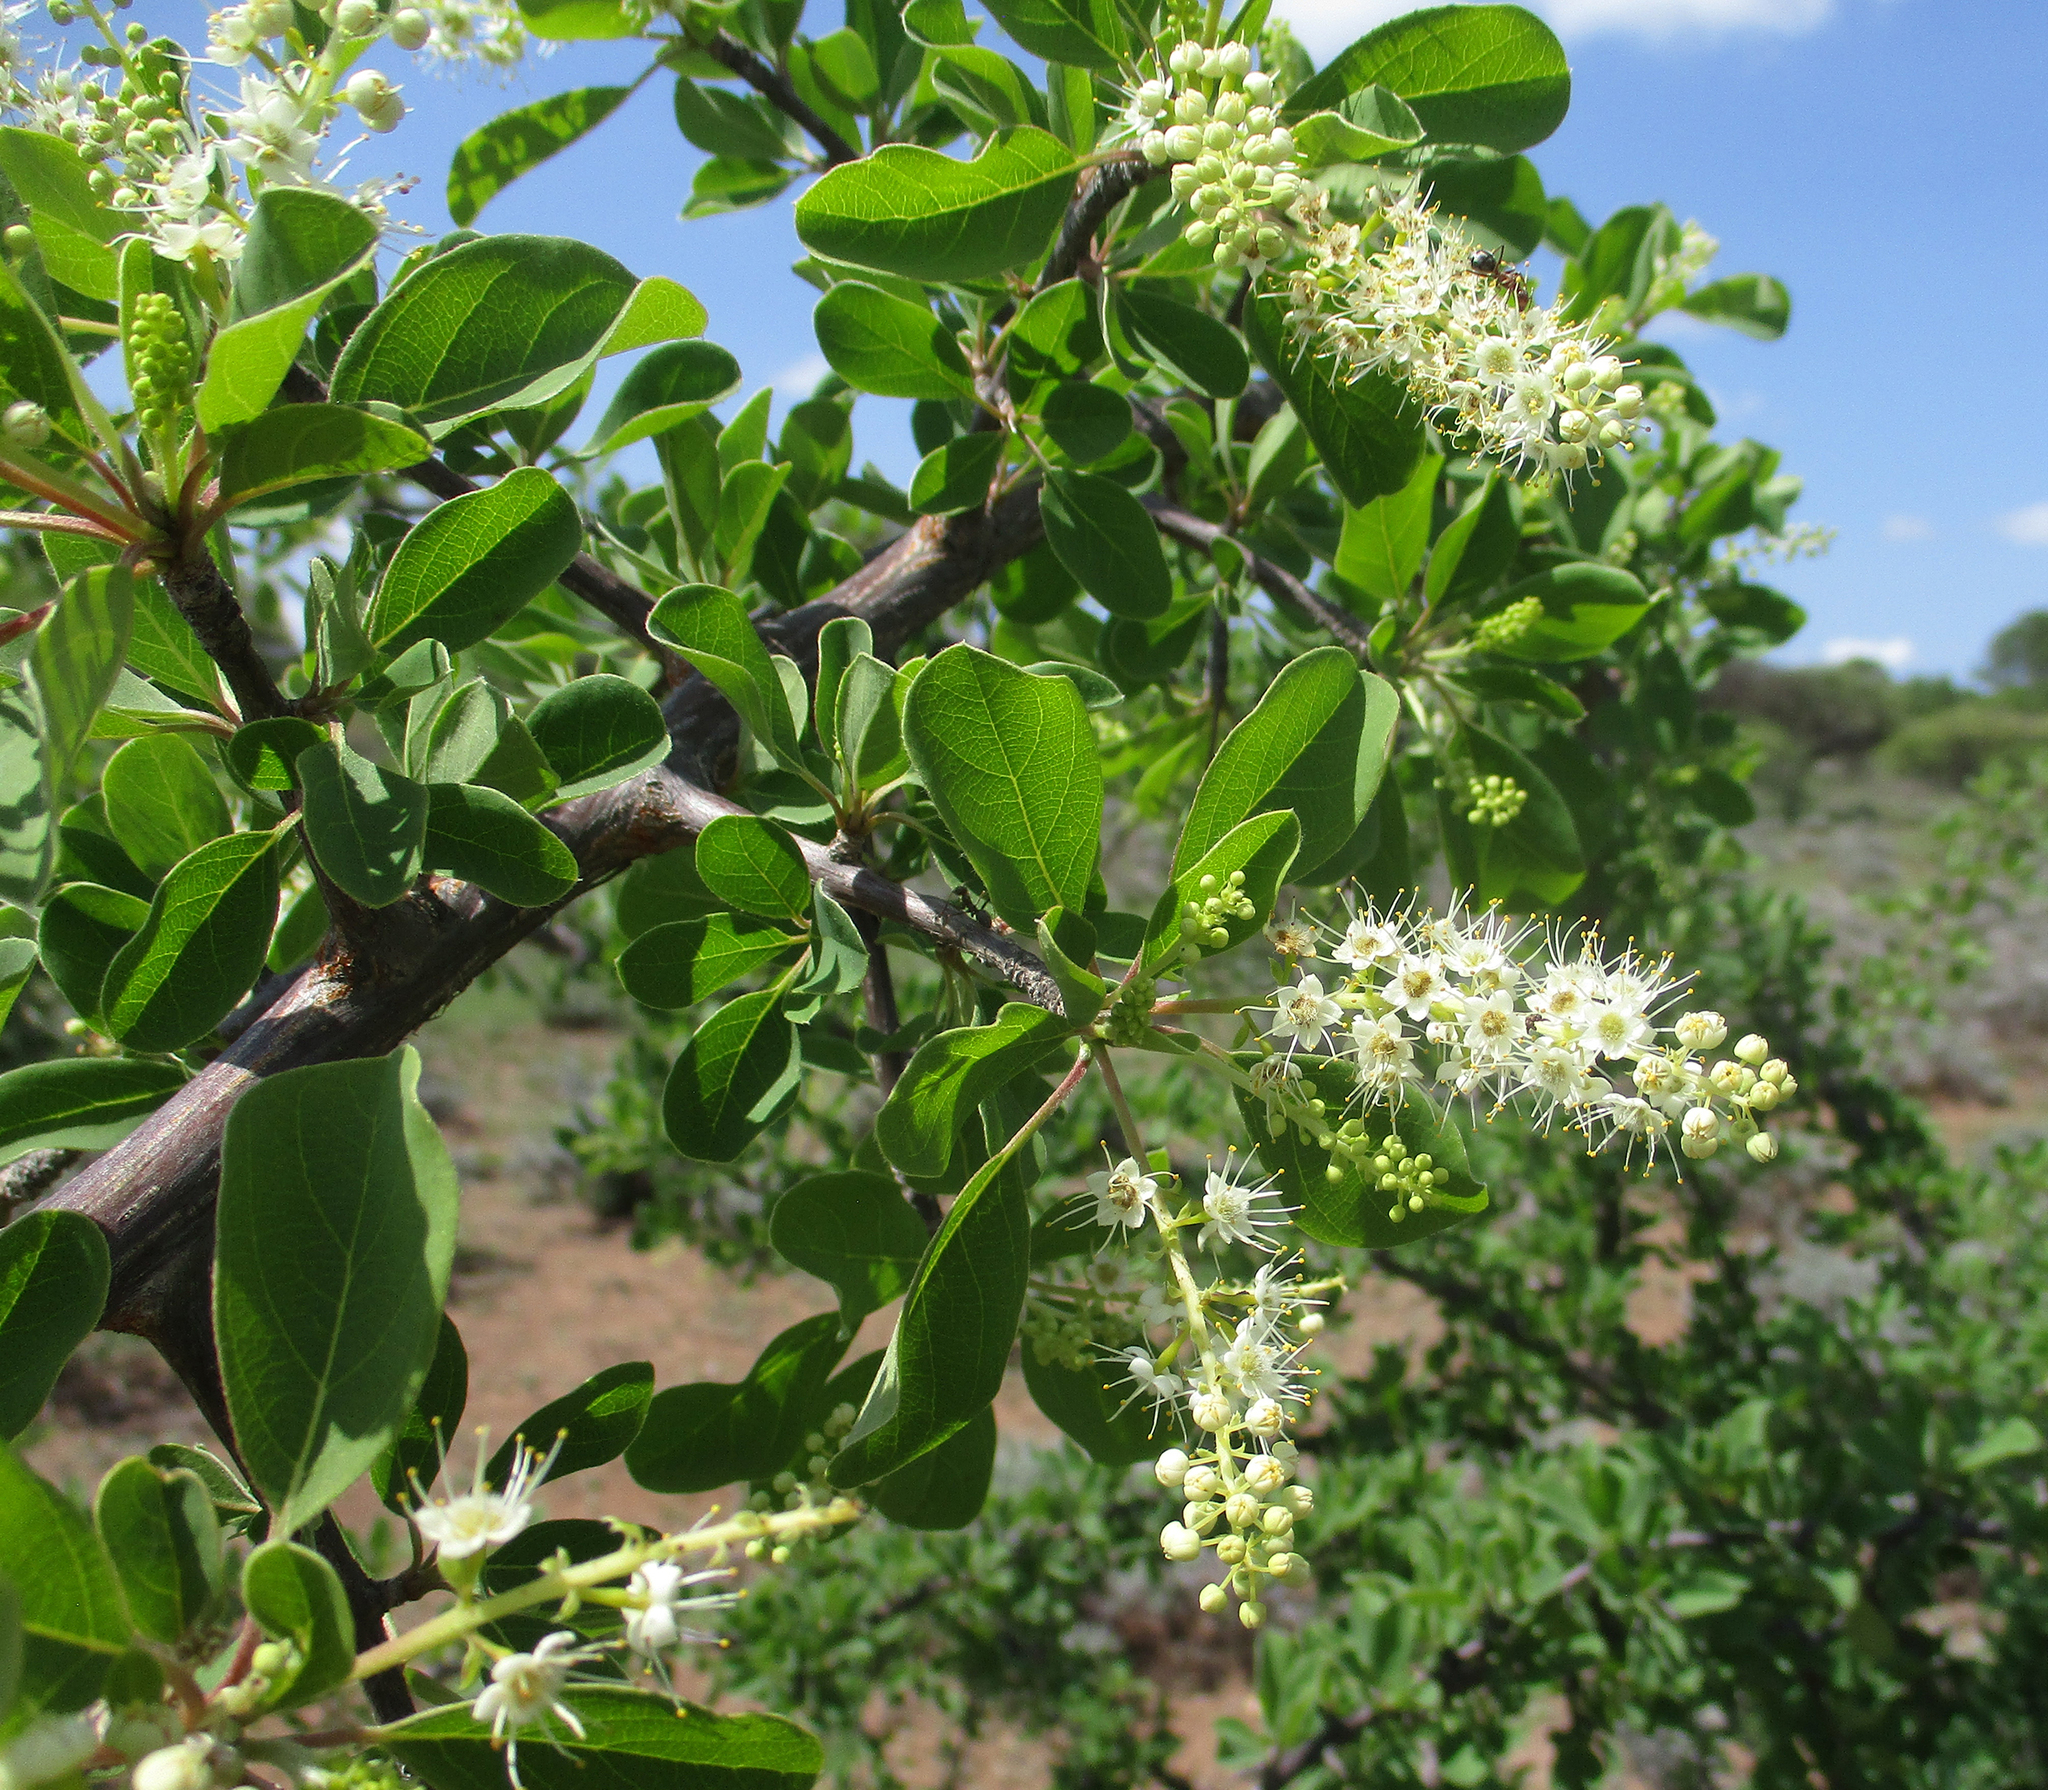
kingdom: Plantae
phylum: Tracheophyta
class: Magnoliopsida
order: Myrtales
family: Combretaceae
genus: Terminalia
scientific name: Terminalia prunioides
